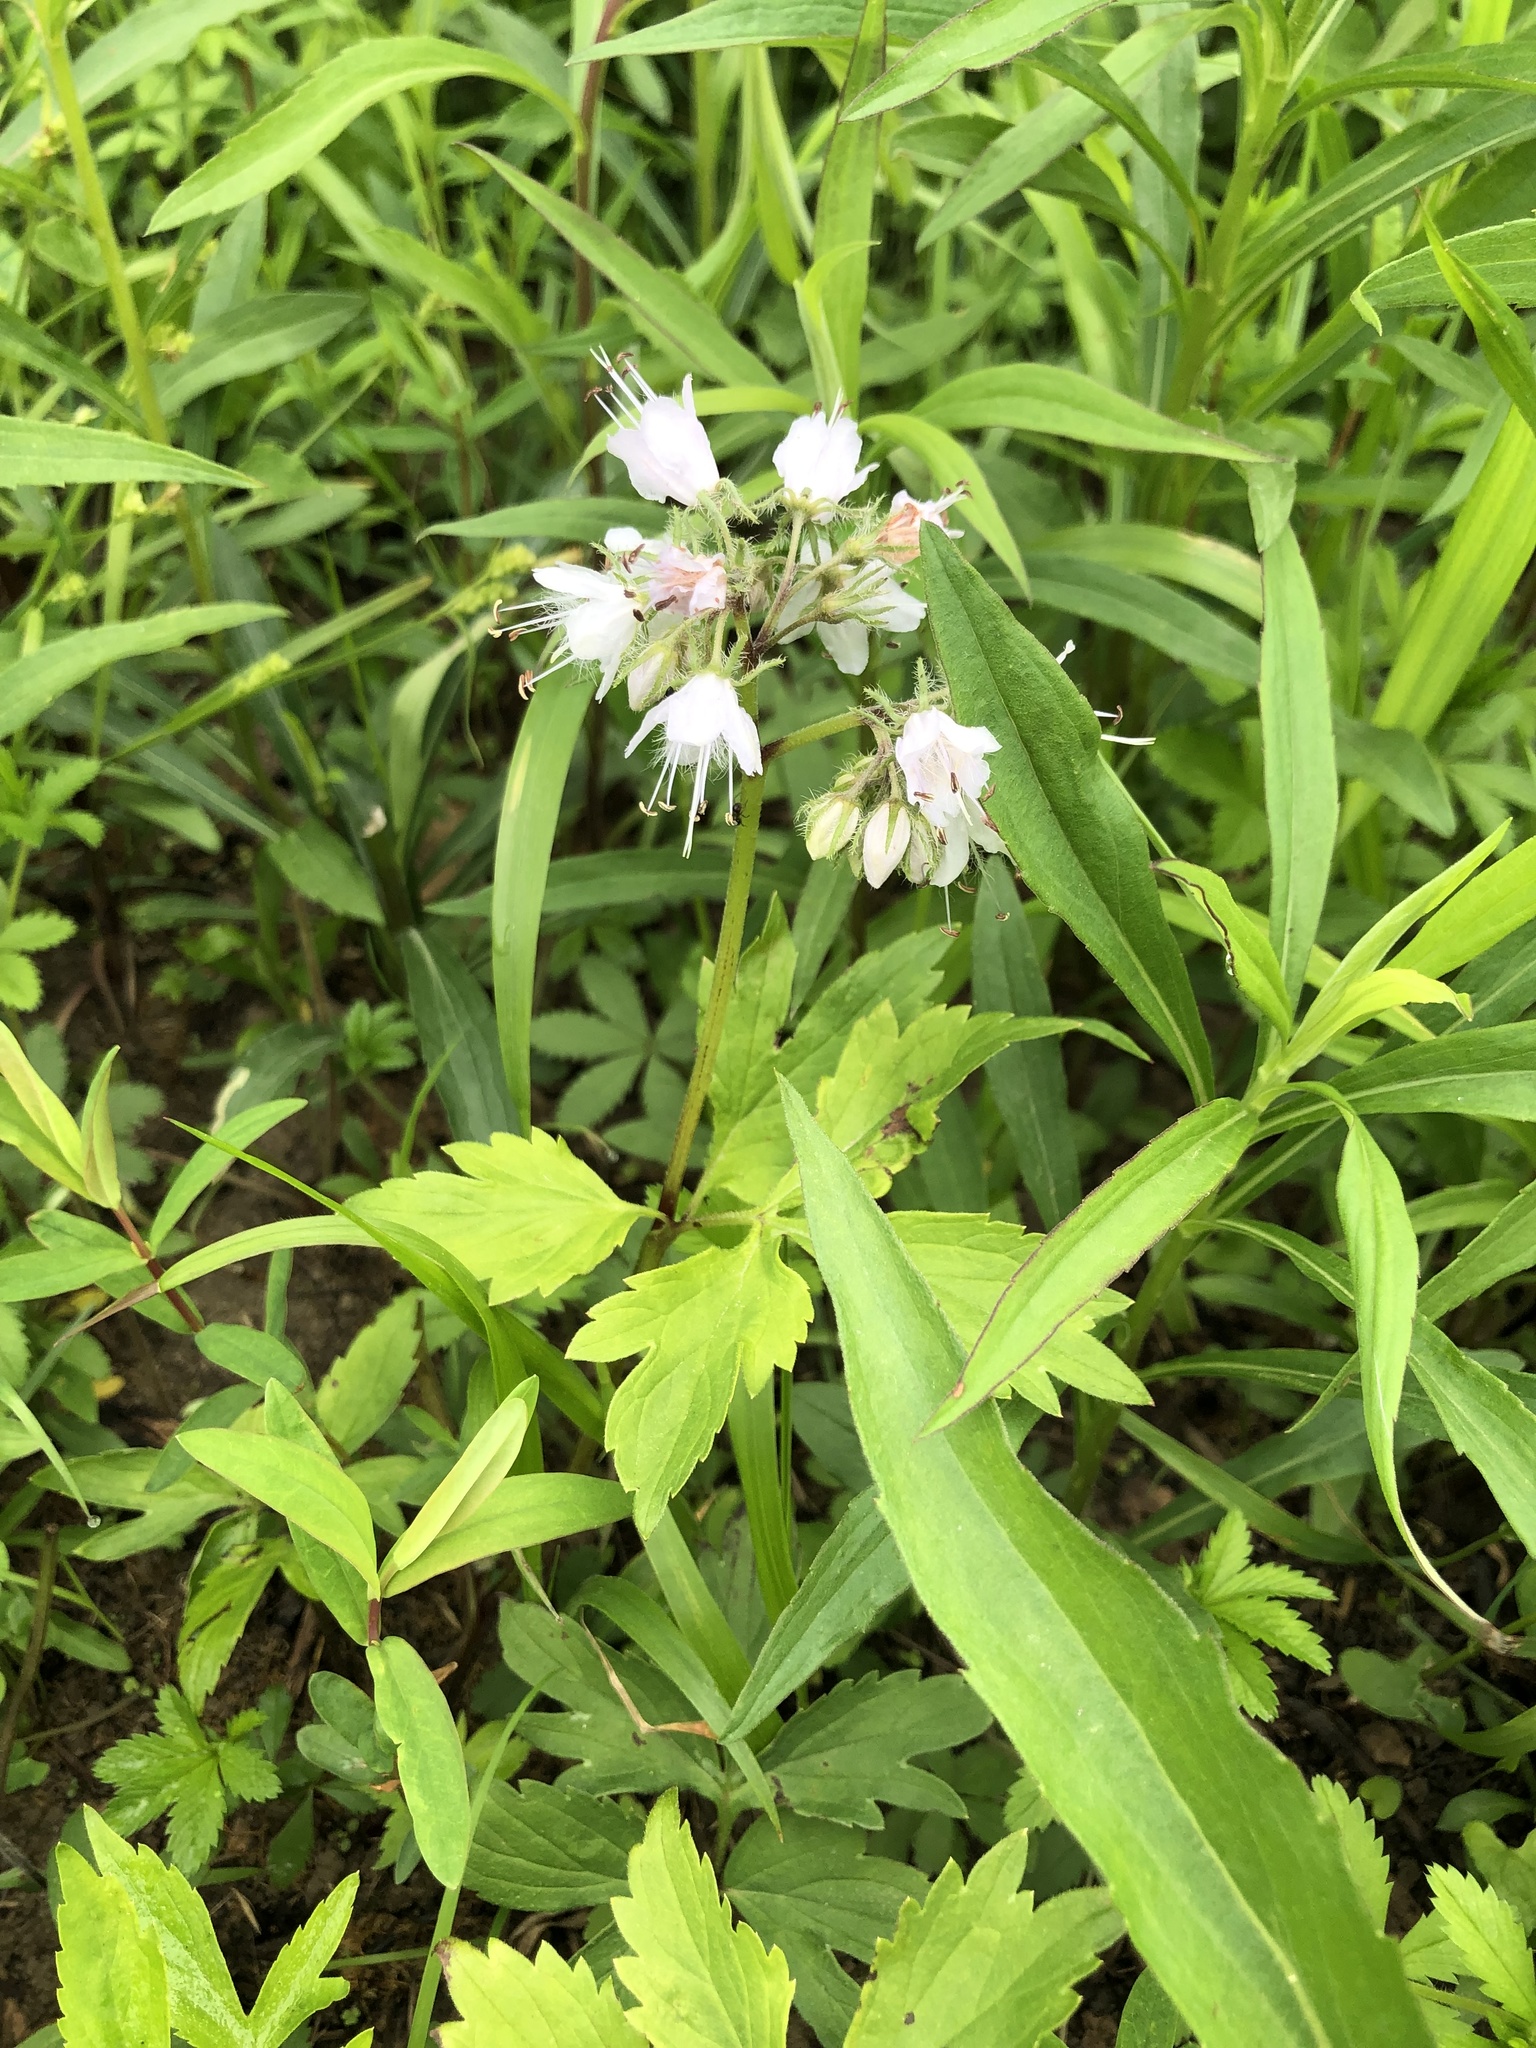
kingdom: Plantae
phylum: Tracheophyta
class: Magnoliopsida
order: Boraginales
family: Hydrophyllaceae
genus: Hydrophyllum
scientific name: Hydrophyllum virginianum
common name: Virginia waterleaf
